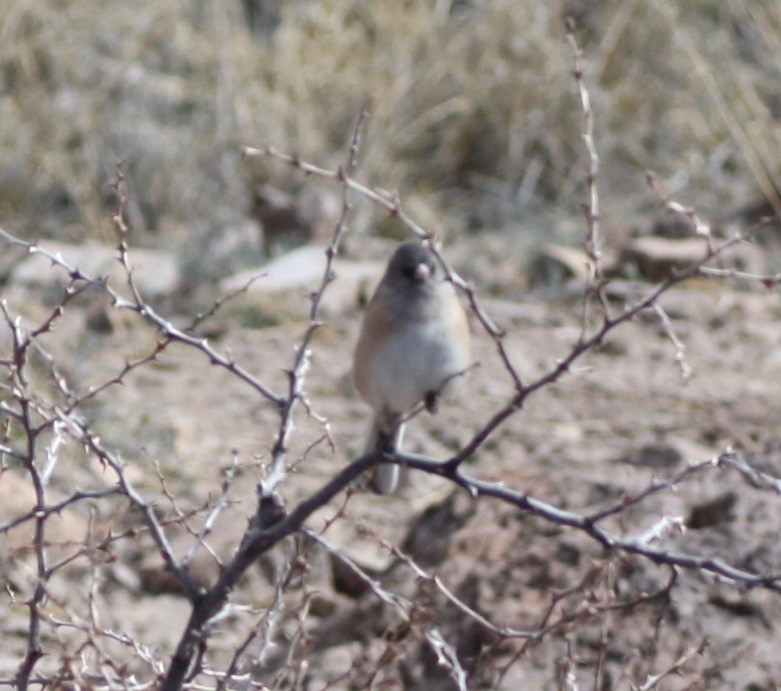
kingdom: Animalia
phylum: Chordata
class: Aves
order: Passeriformes
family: Passerellidae
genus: Junco
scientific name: Junco hyemalis
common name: Dark-eyed junco
